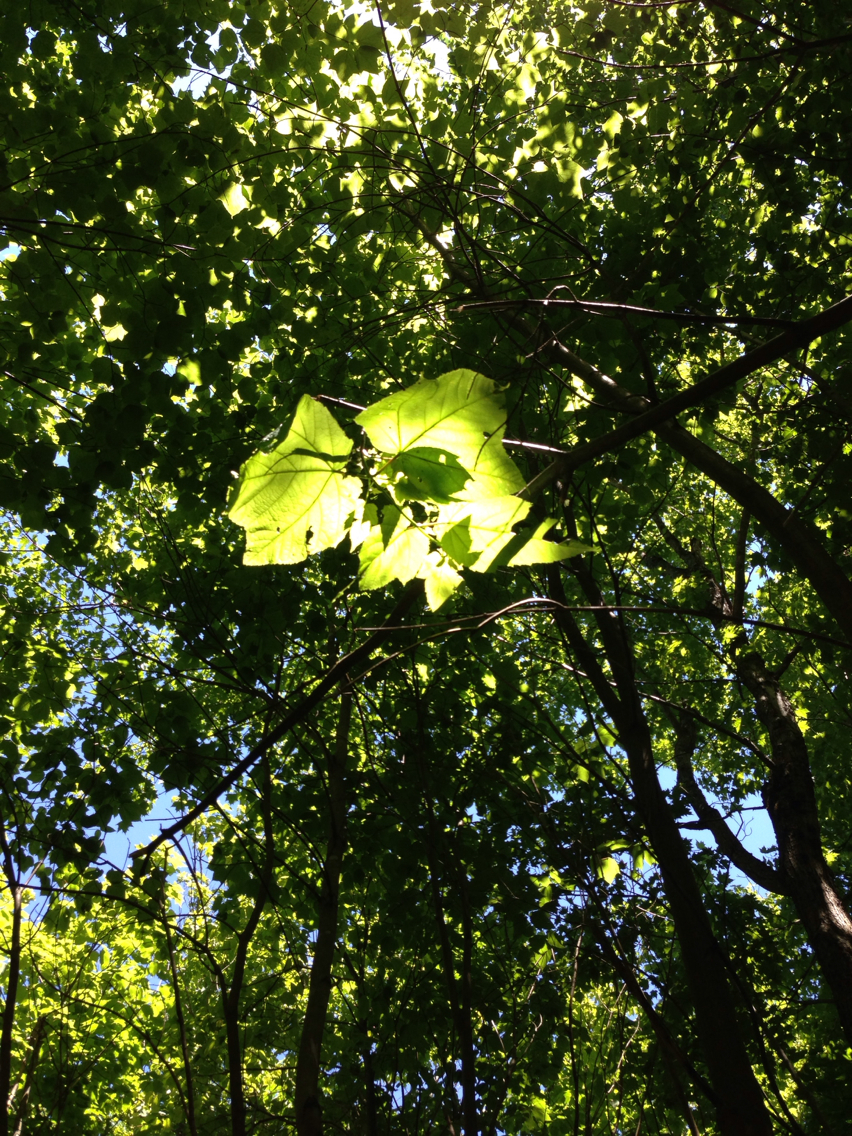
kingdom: Plantae
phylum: Tracheophyta
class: Magnoliopsida
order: Sapindales
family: Sapindaceae
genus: Acer
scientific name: Acer pensylvanicum
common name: Moosewood
